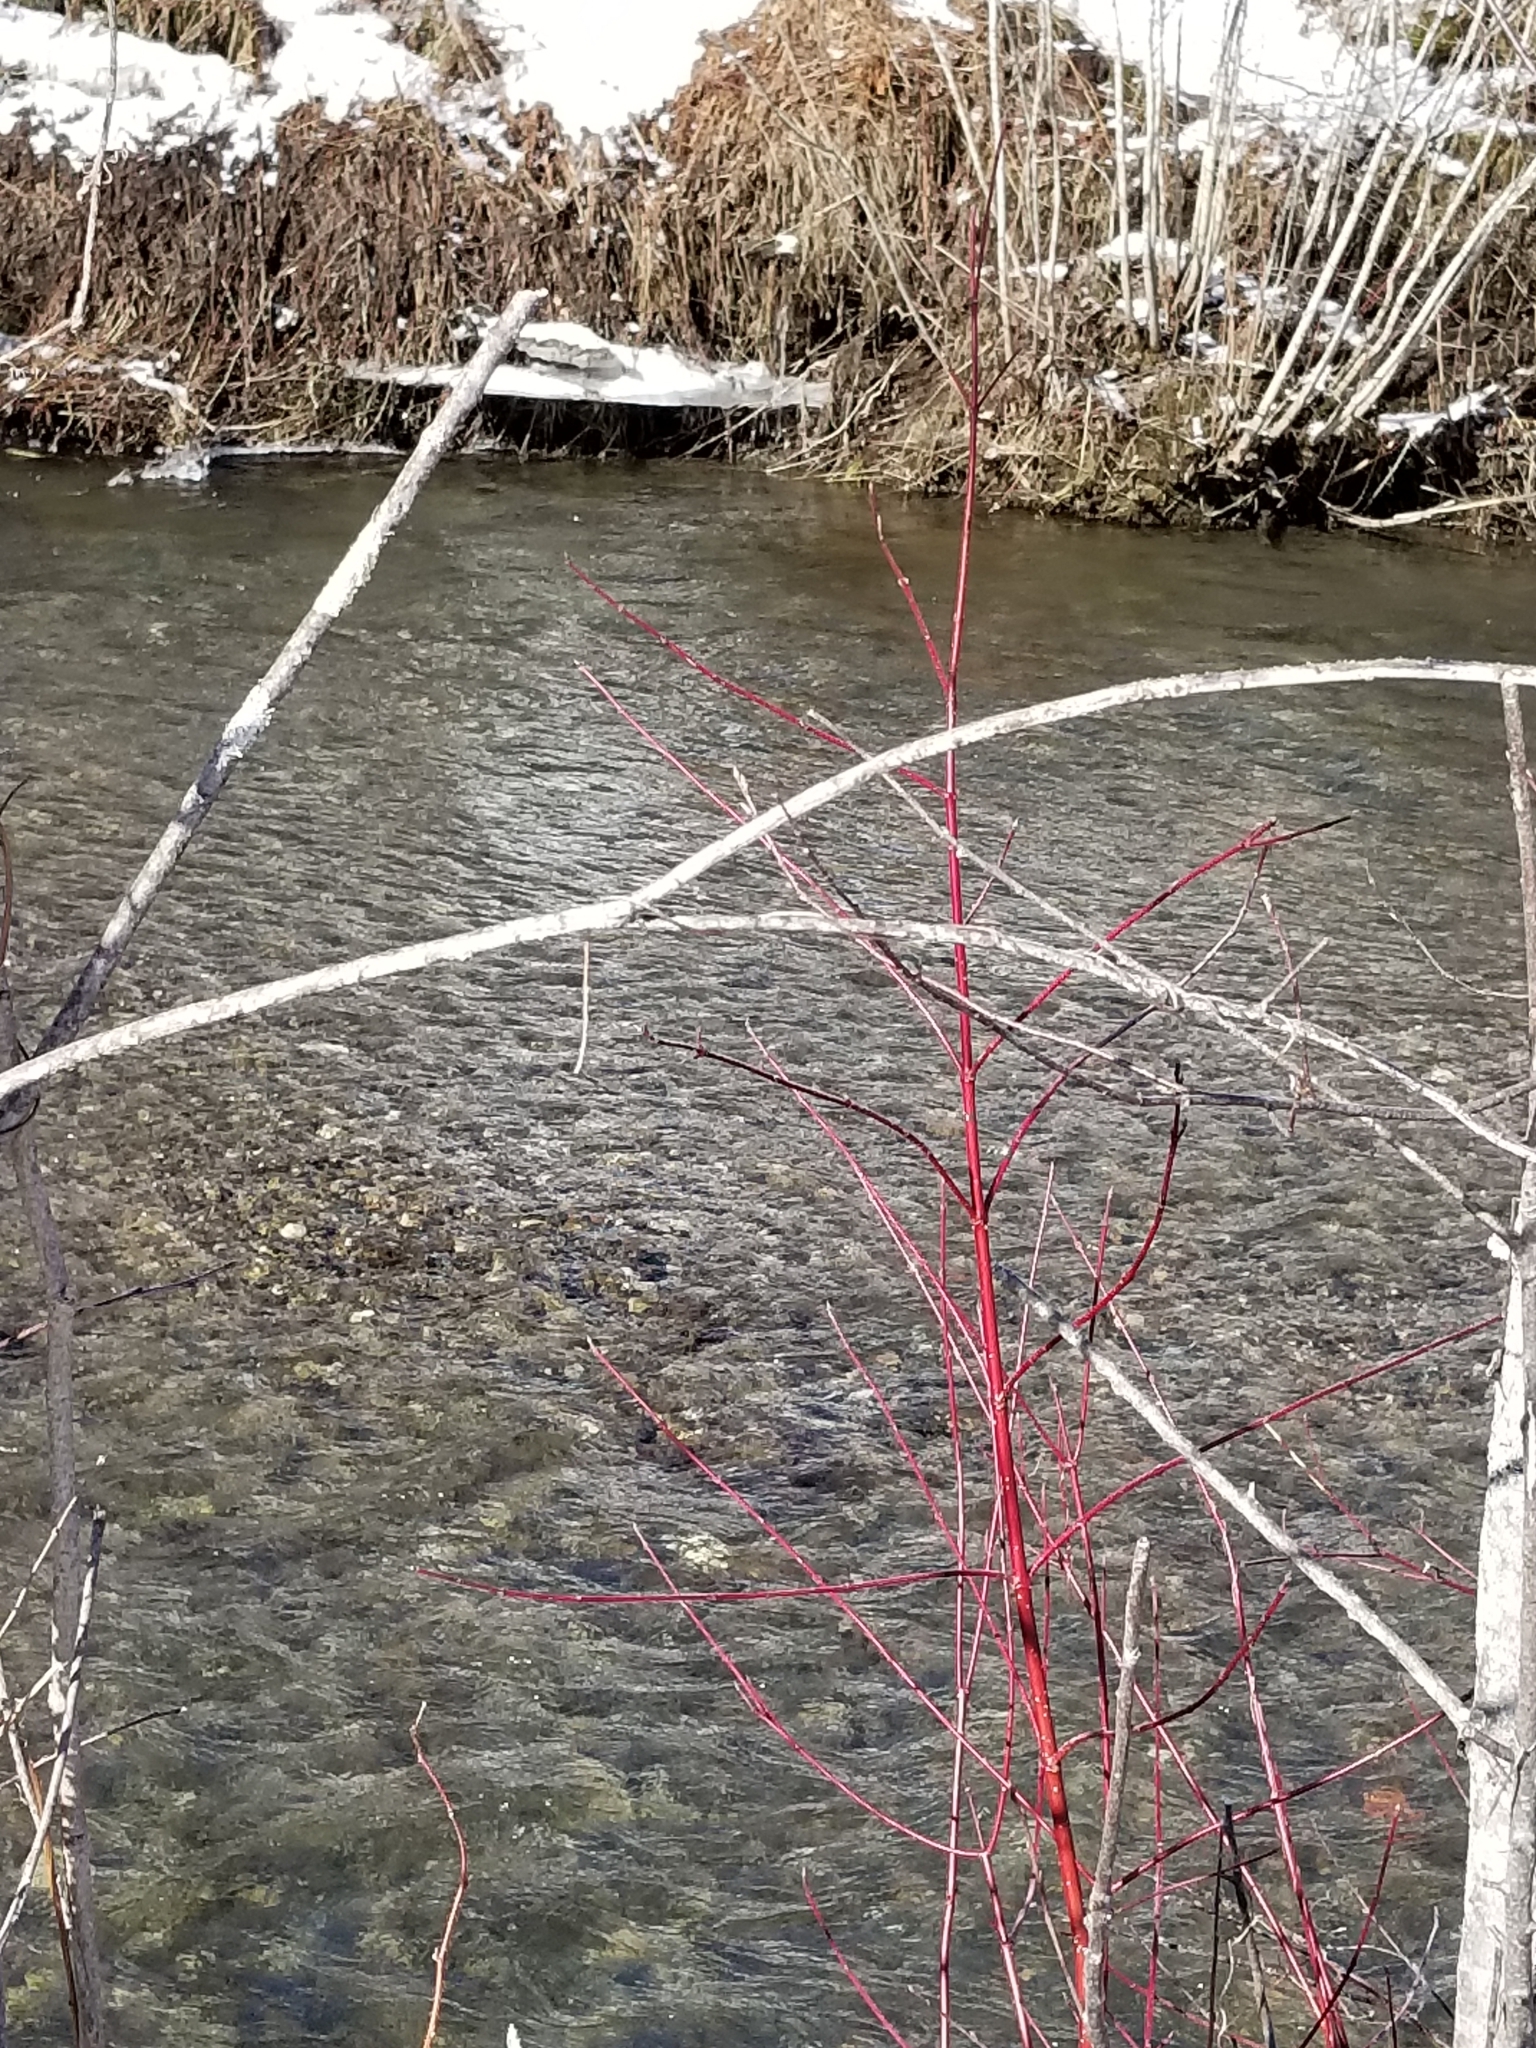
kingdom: Plantae
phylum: Tracheophyta
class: Magnoliopsida
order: Cornales
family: Cornaceae
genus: Cornus
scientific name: Cornus sericea
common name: Red-osier dogwood
